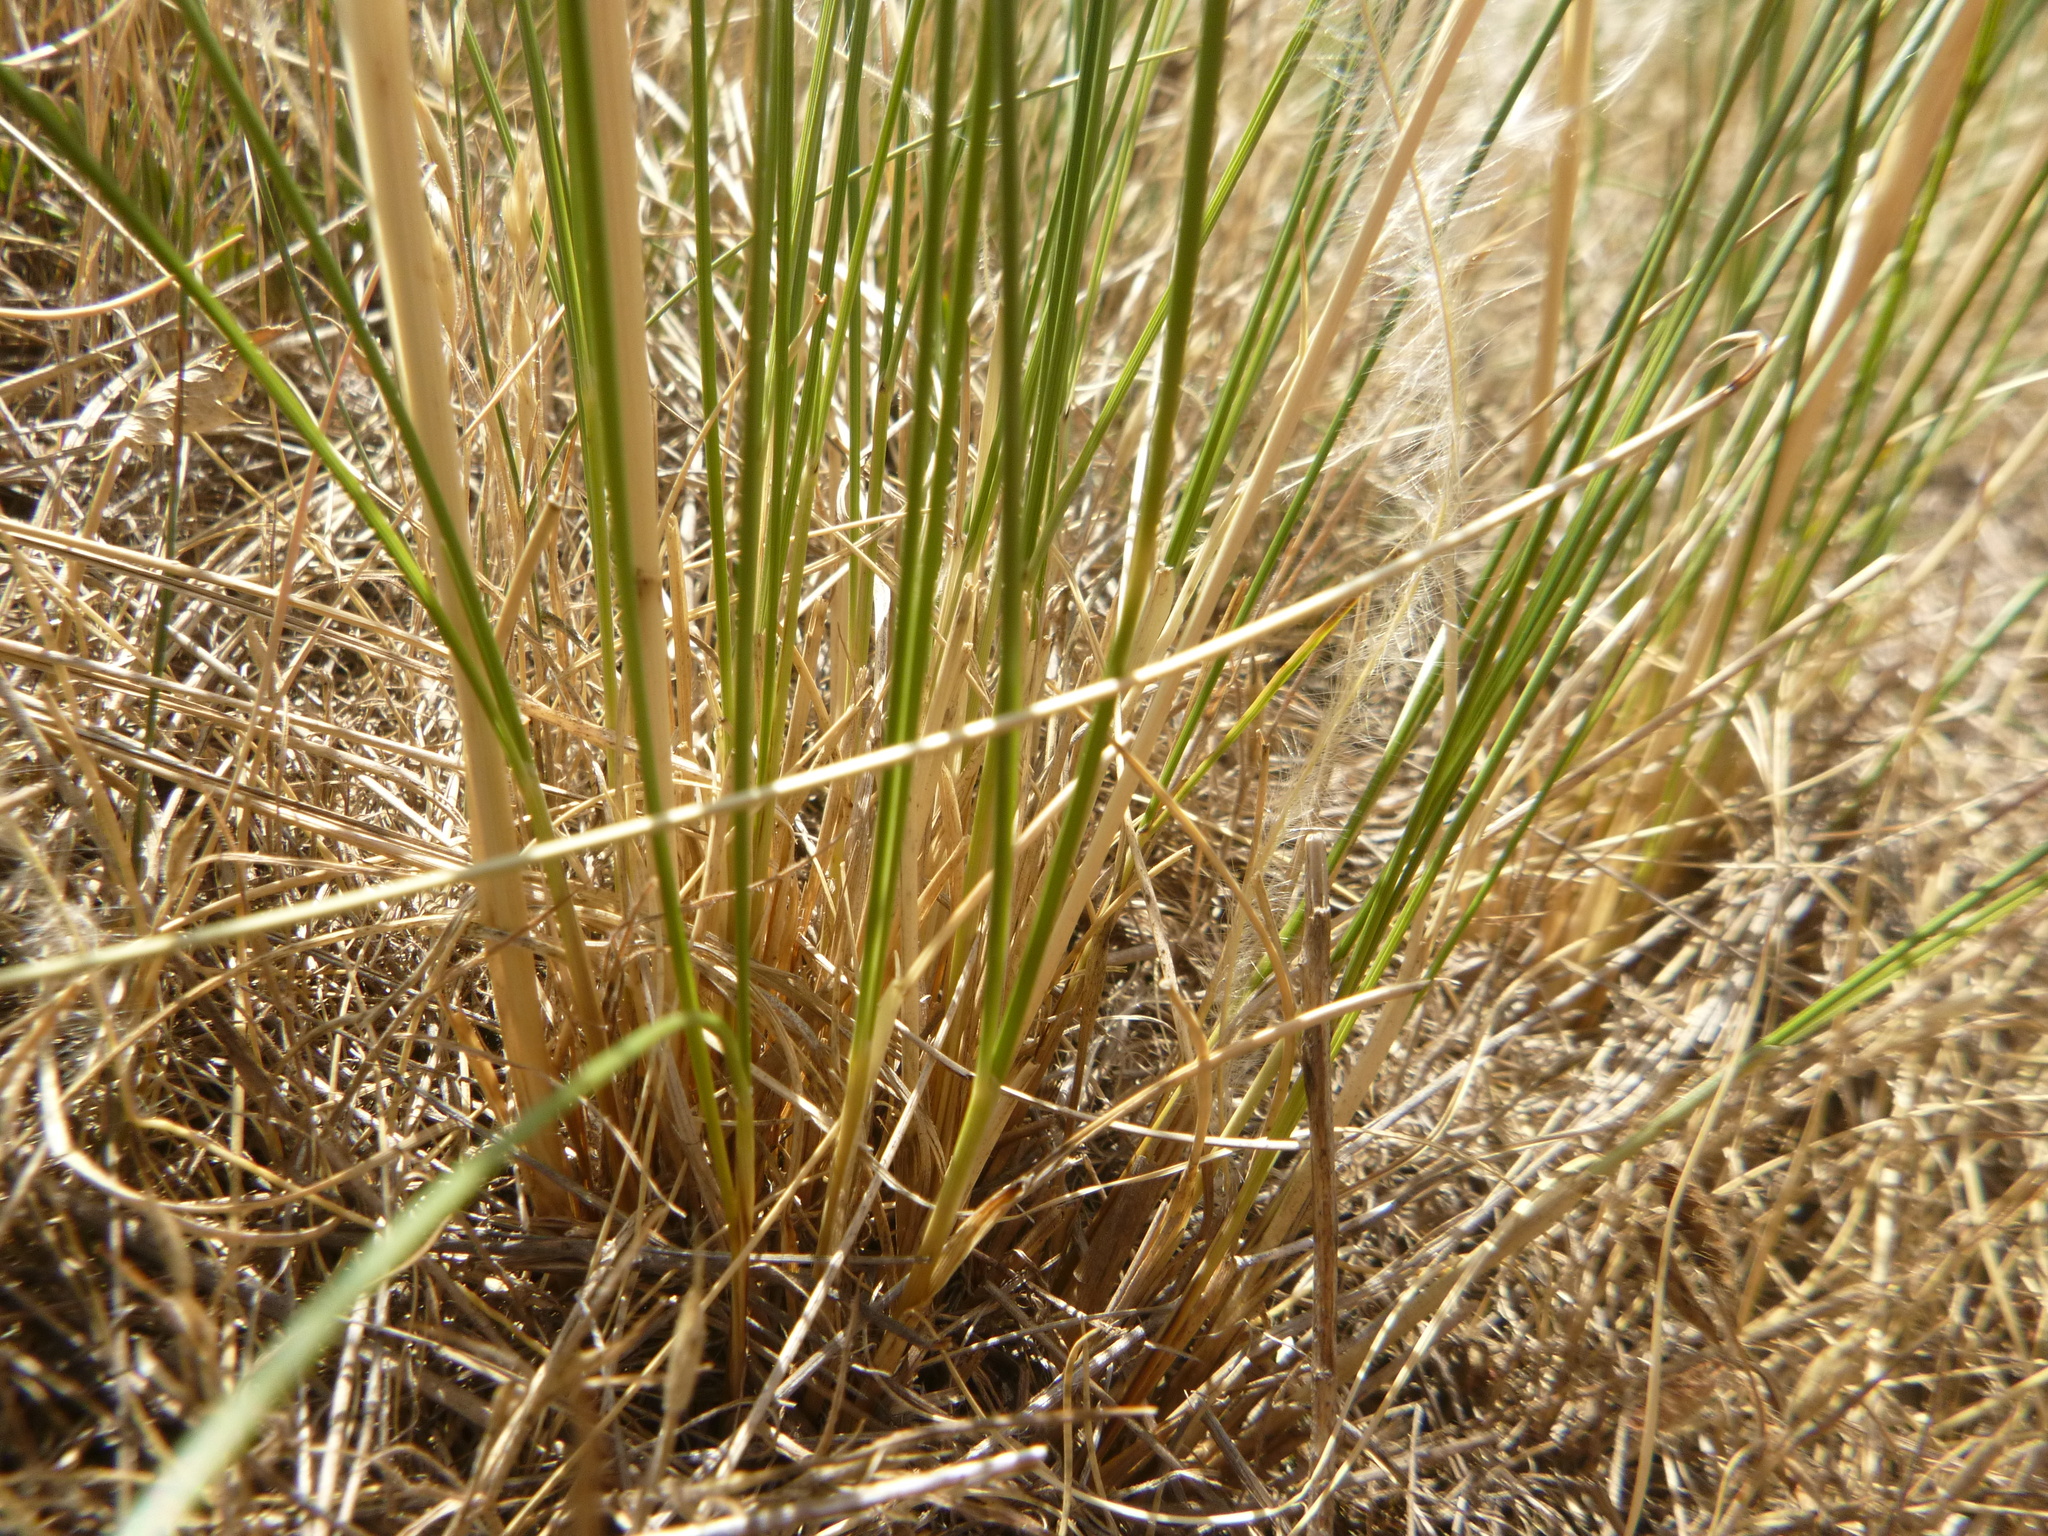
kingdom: Plantae
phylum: Tracheophyta
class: Liliopsida
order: Poales
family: Poaceae
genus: Stipa
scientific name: Stipa iberica
